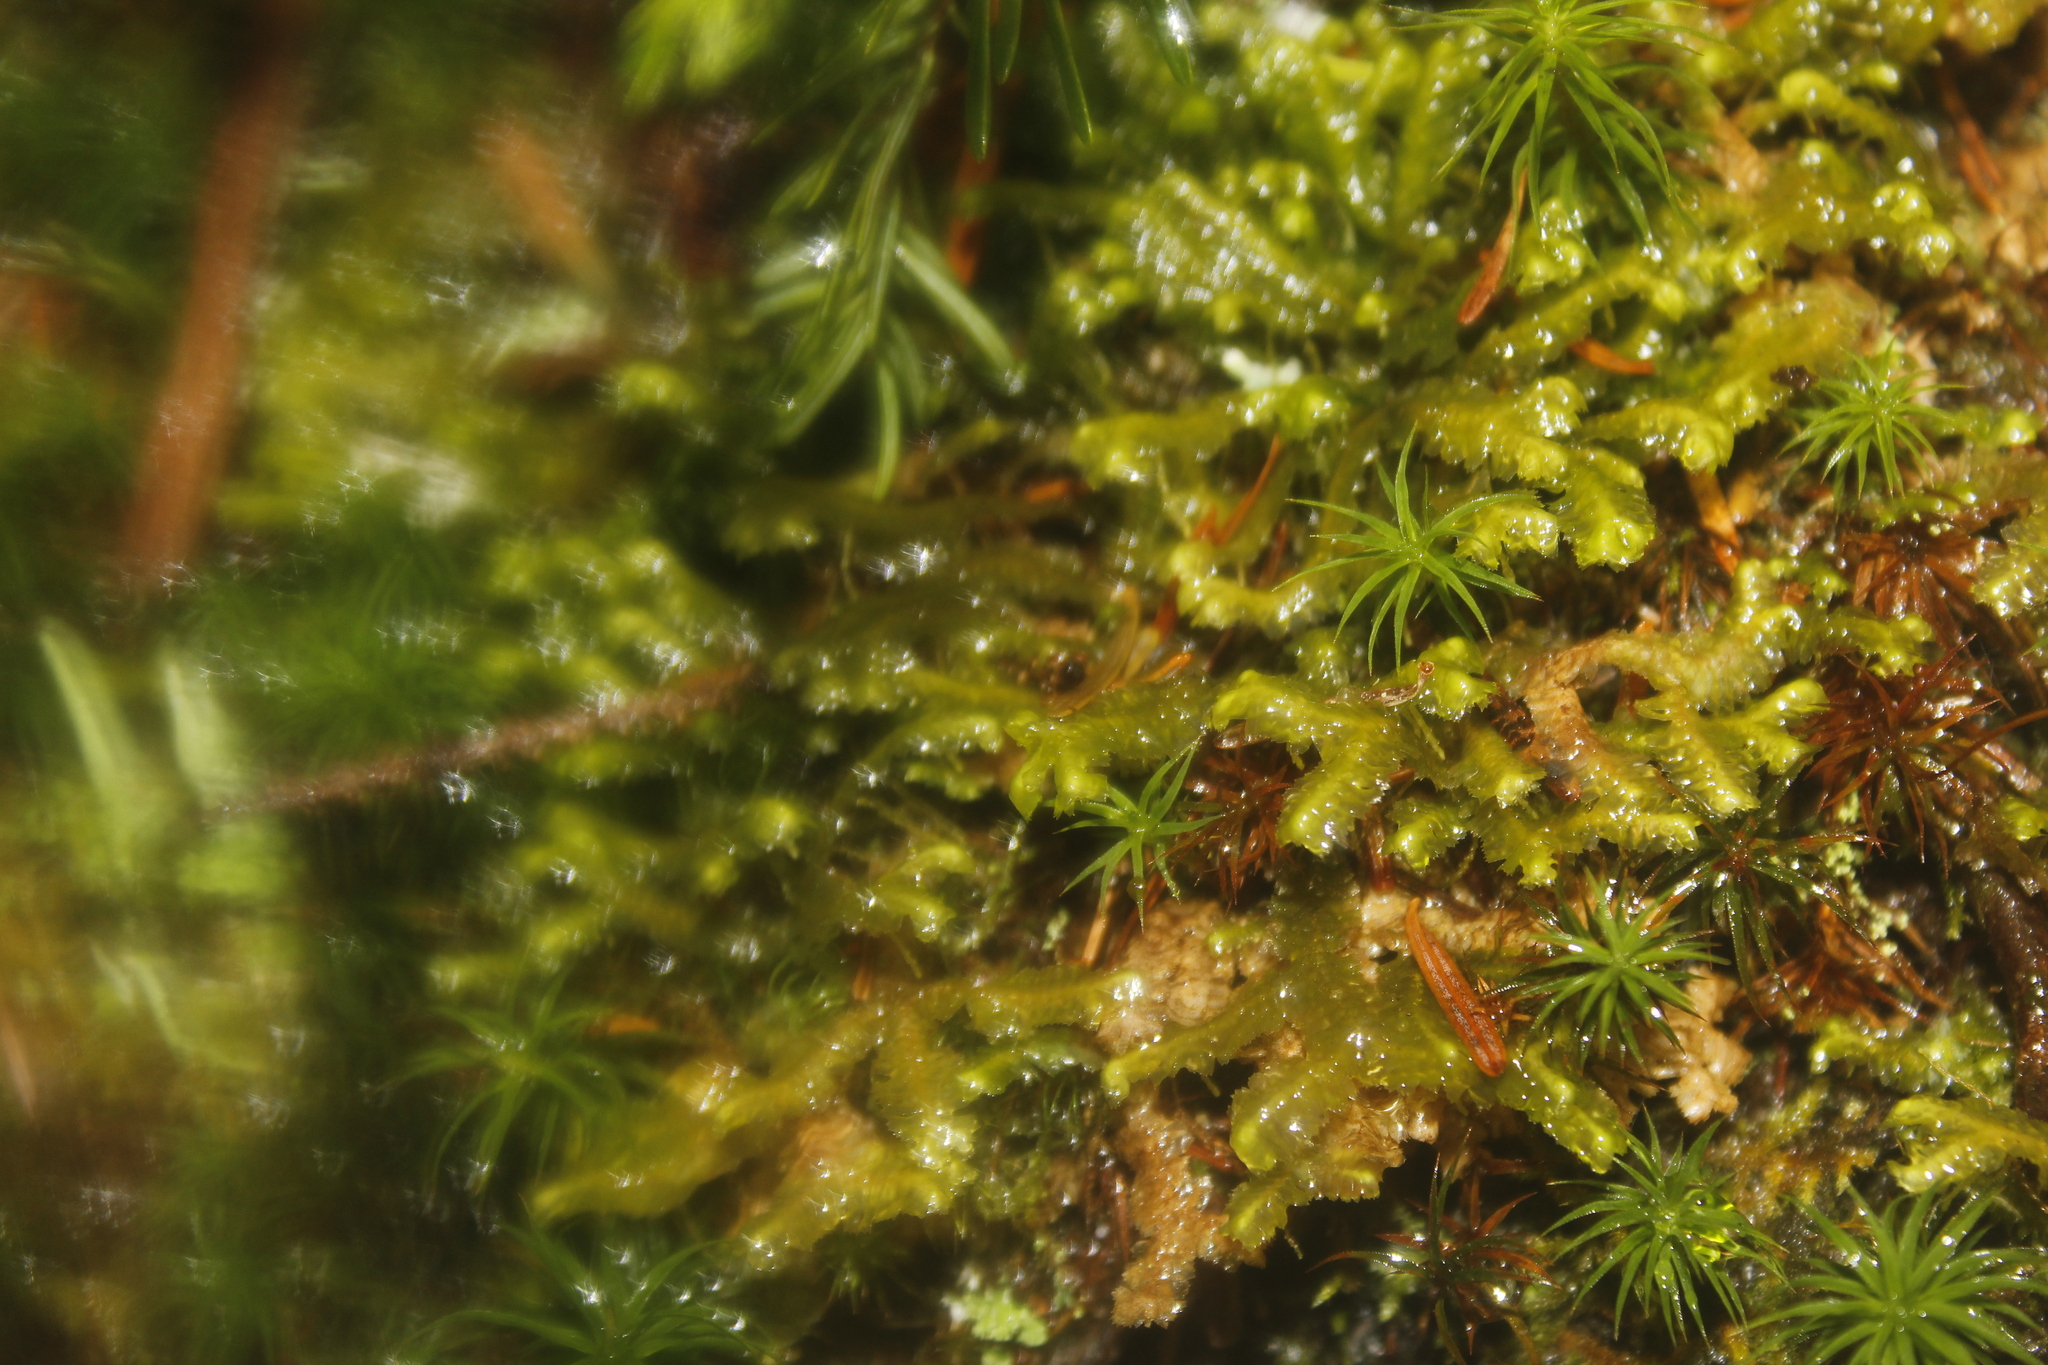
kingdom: Plantae
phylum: Marchantiophyta
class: Jungermanniopsida
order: Jungermanniales
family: Lepidoziaceae
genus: Bazzania
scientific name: Bazzania trilobata
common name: Three-lobed whipwort
